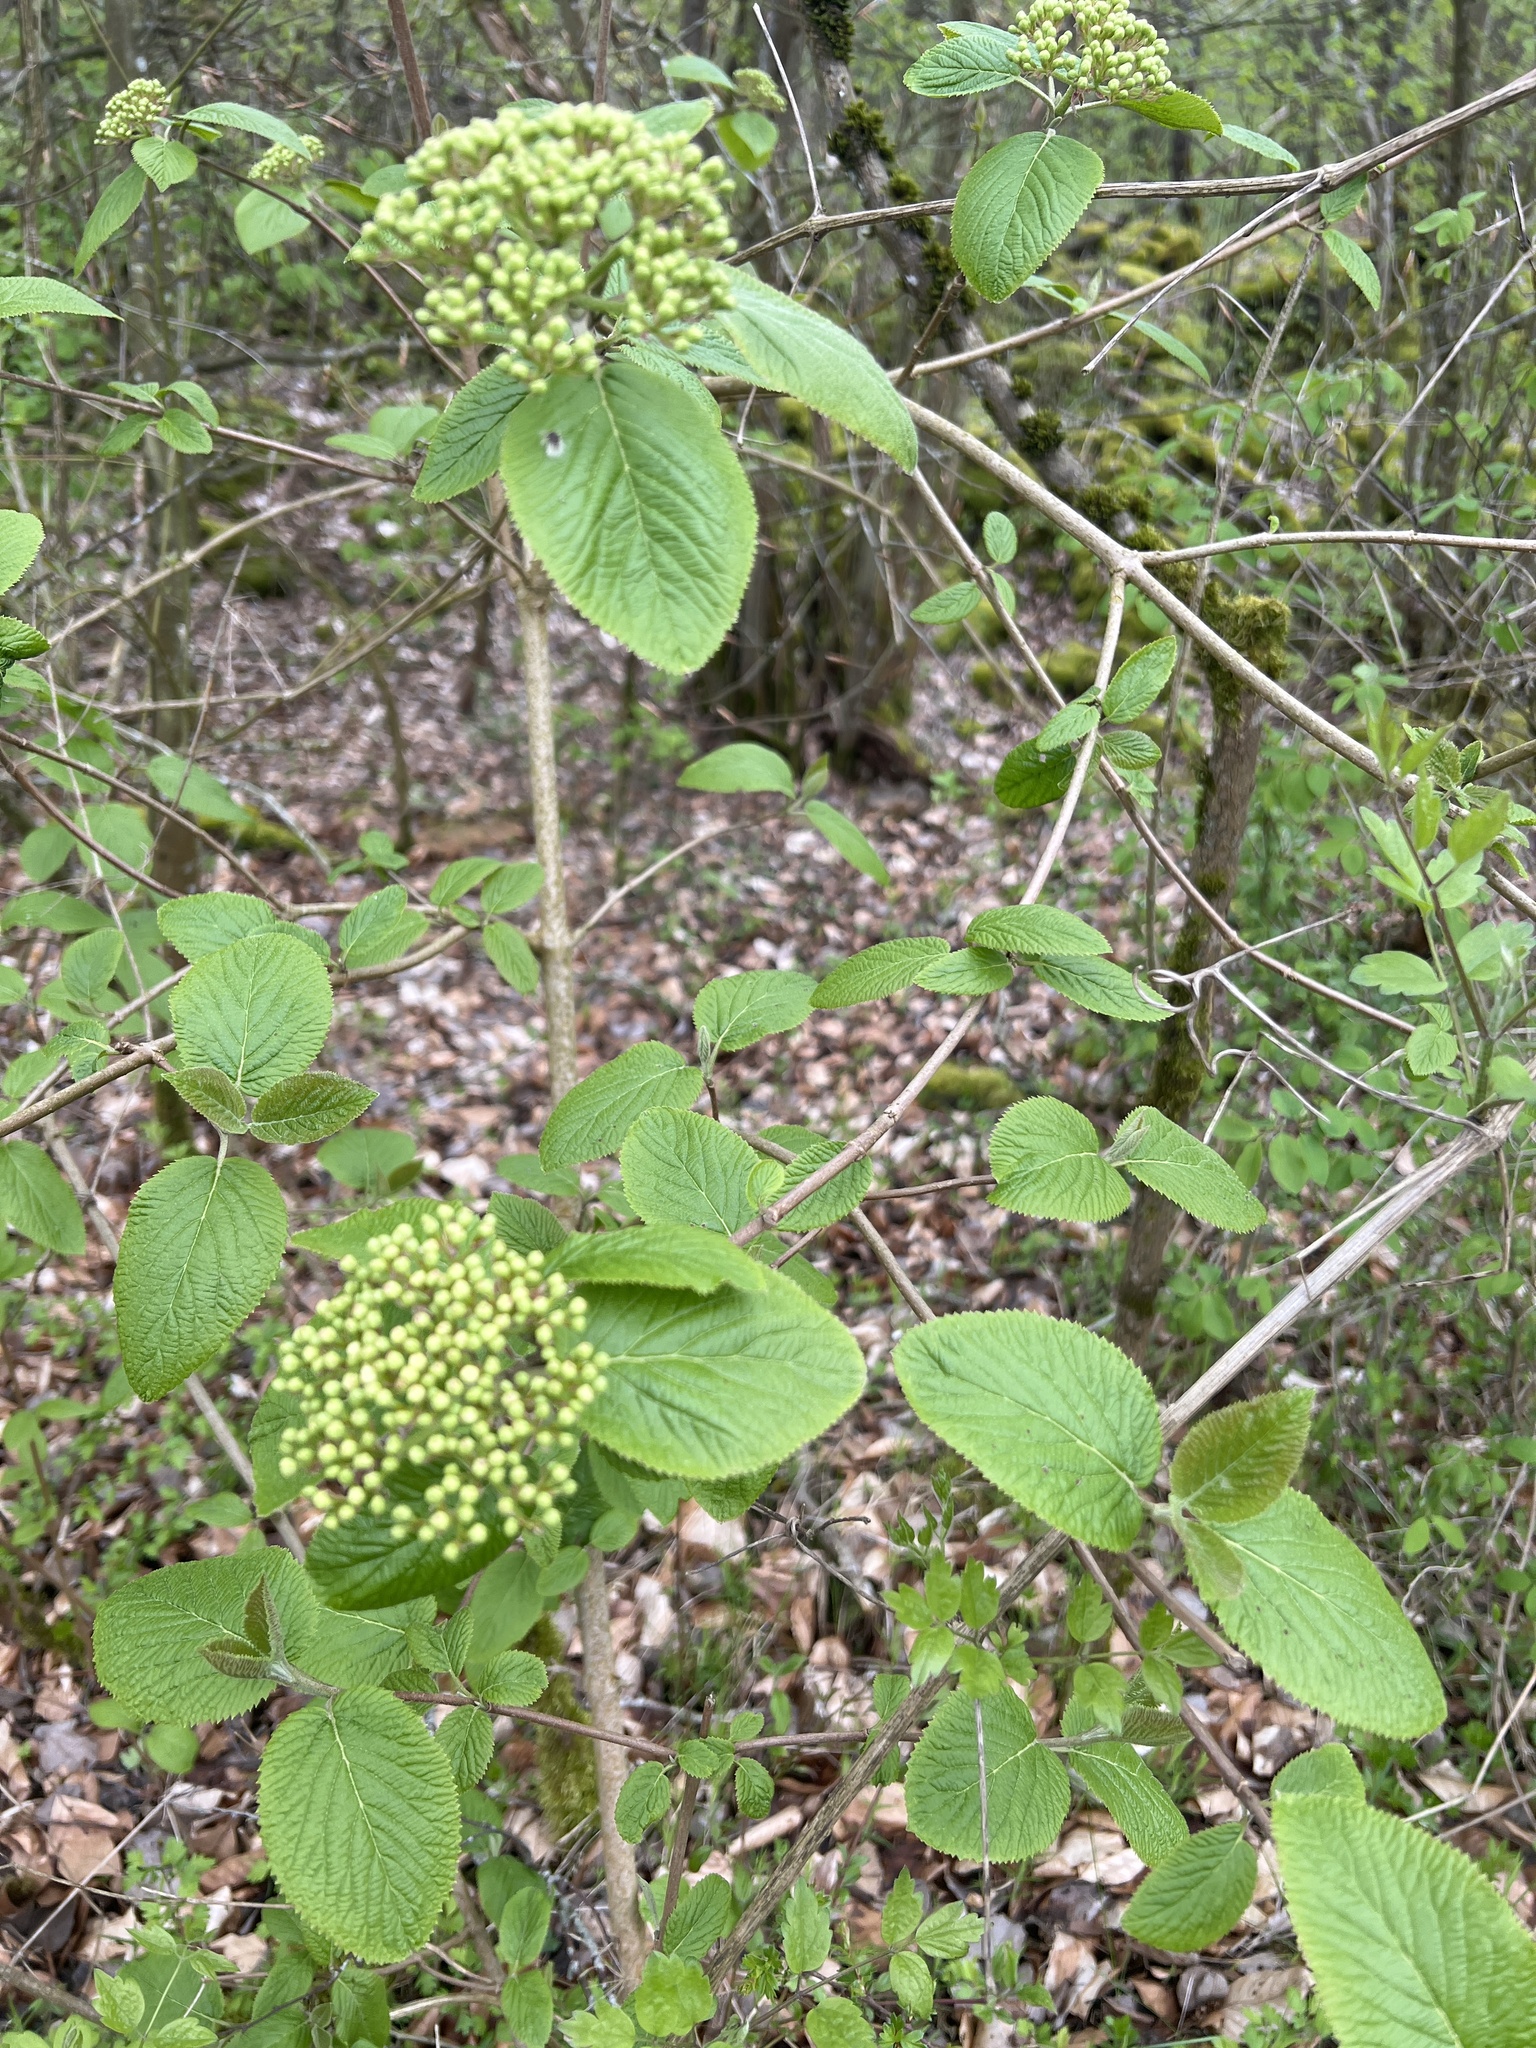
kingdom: Plantae
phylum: Tracheophyta
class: Magnoliopsida
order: Dipsacales
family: Viburnaceae
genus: Viburnum
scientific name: Viburnum lantana
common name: Wayfaring tree
